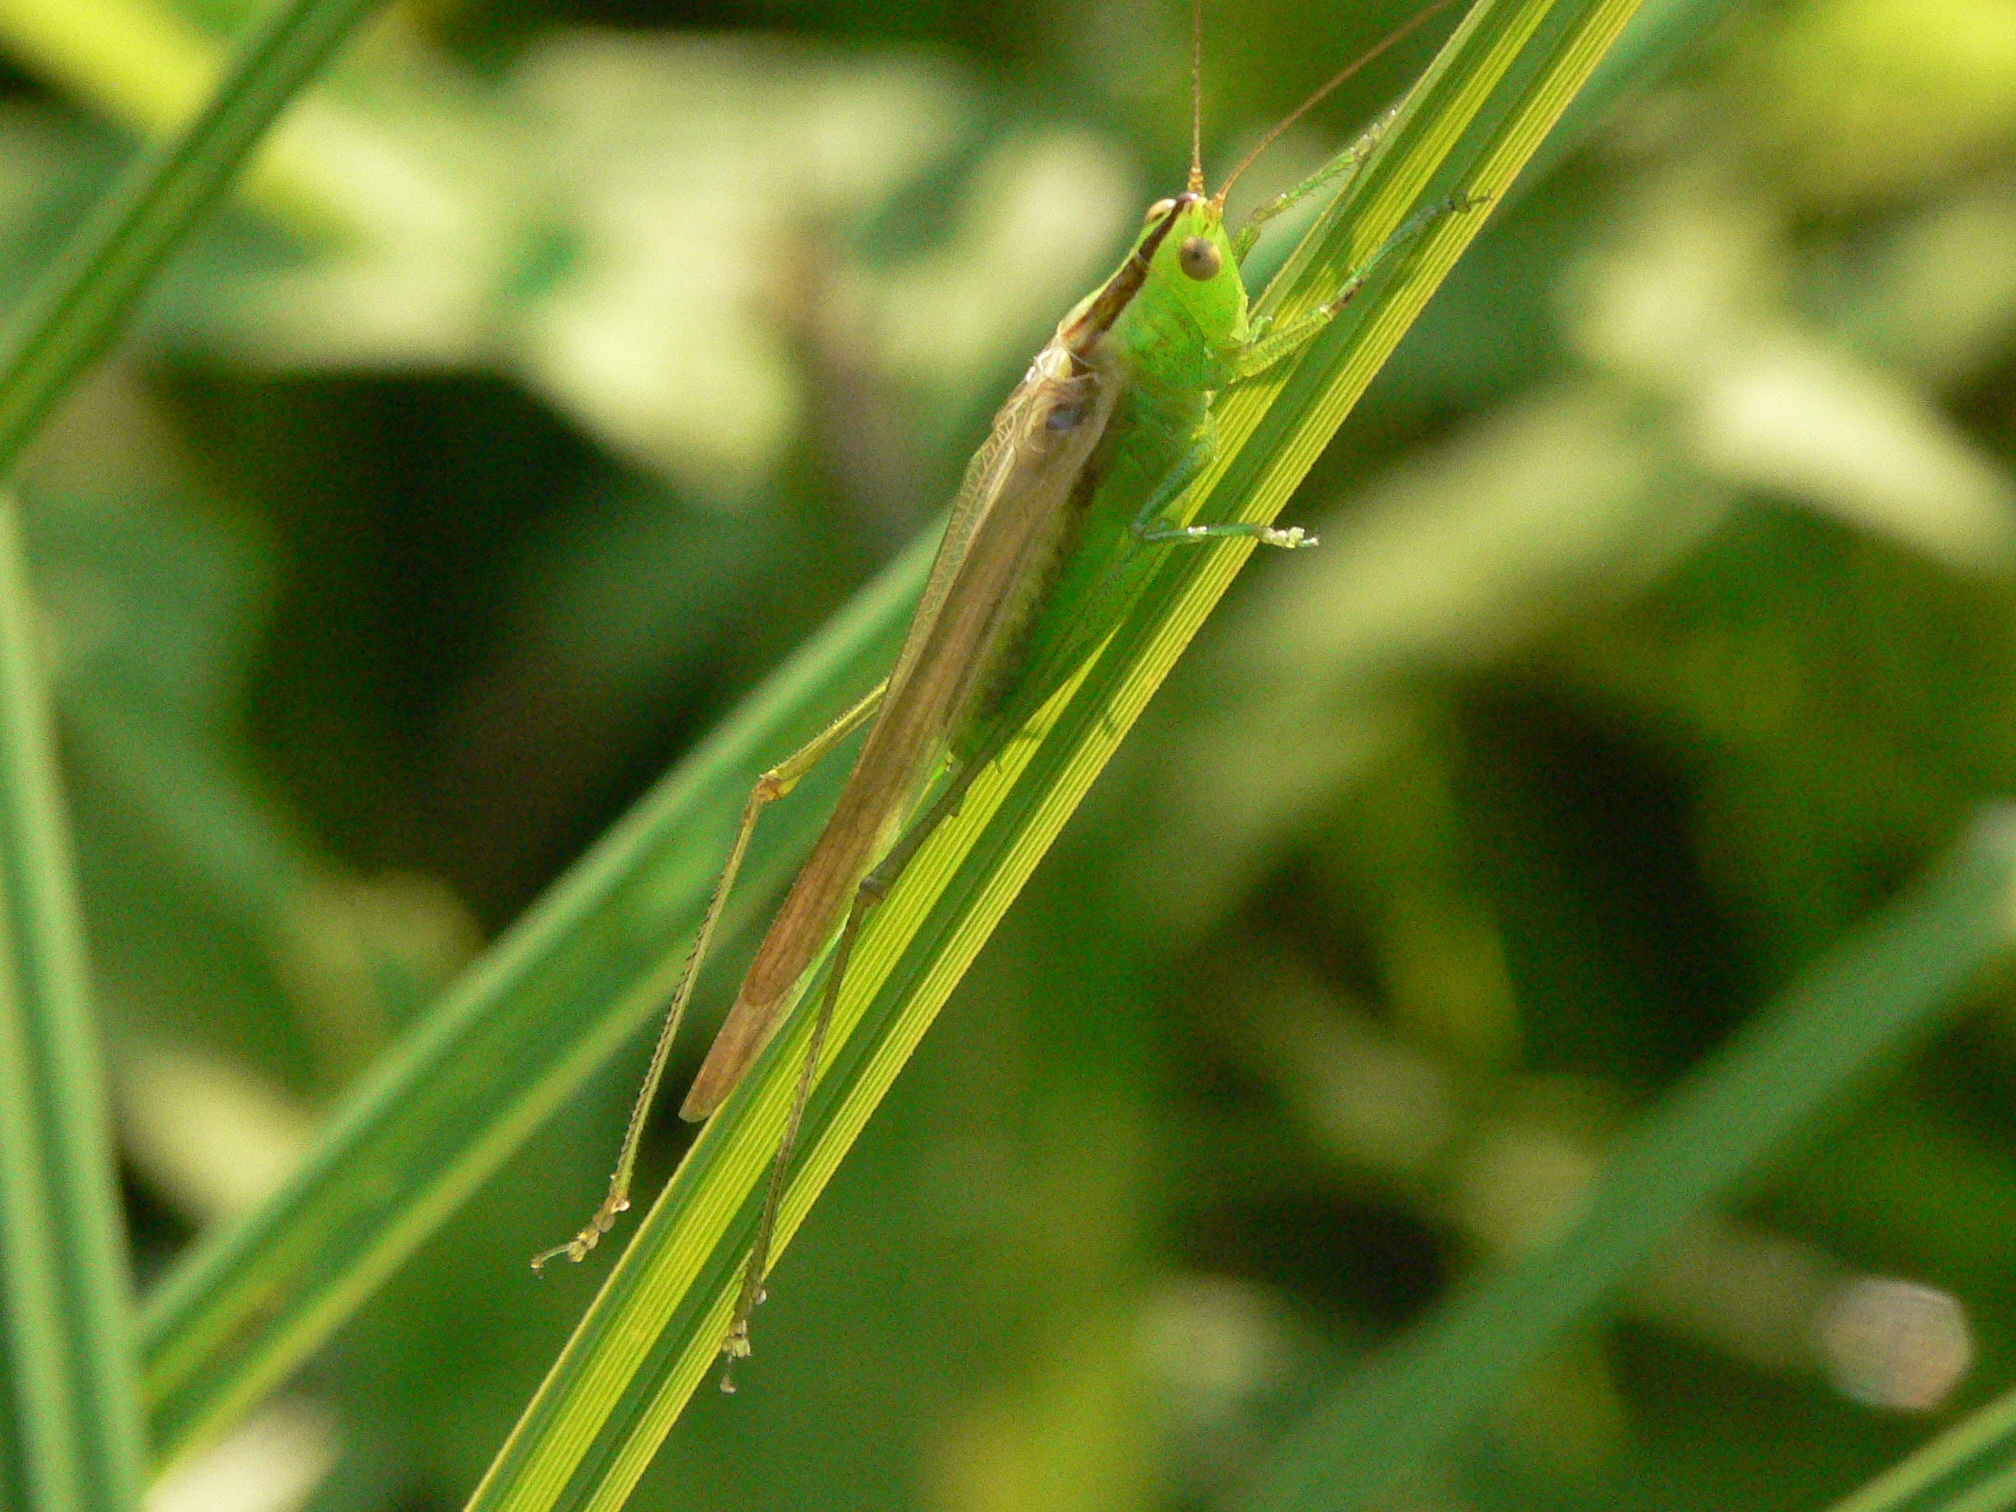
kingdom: Animalia
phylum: Arthropoda
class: Insecta
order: Orthoptera
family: Tettigoniidae
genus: Conocephalus
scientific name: Conocephalus fasciatus
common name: Slender meadow katydid
